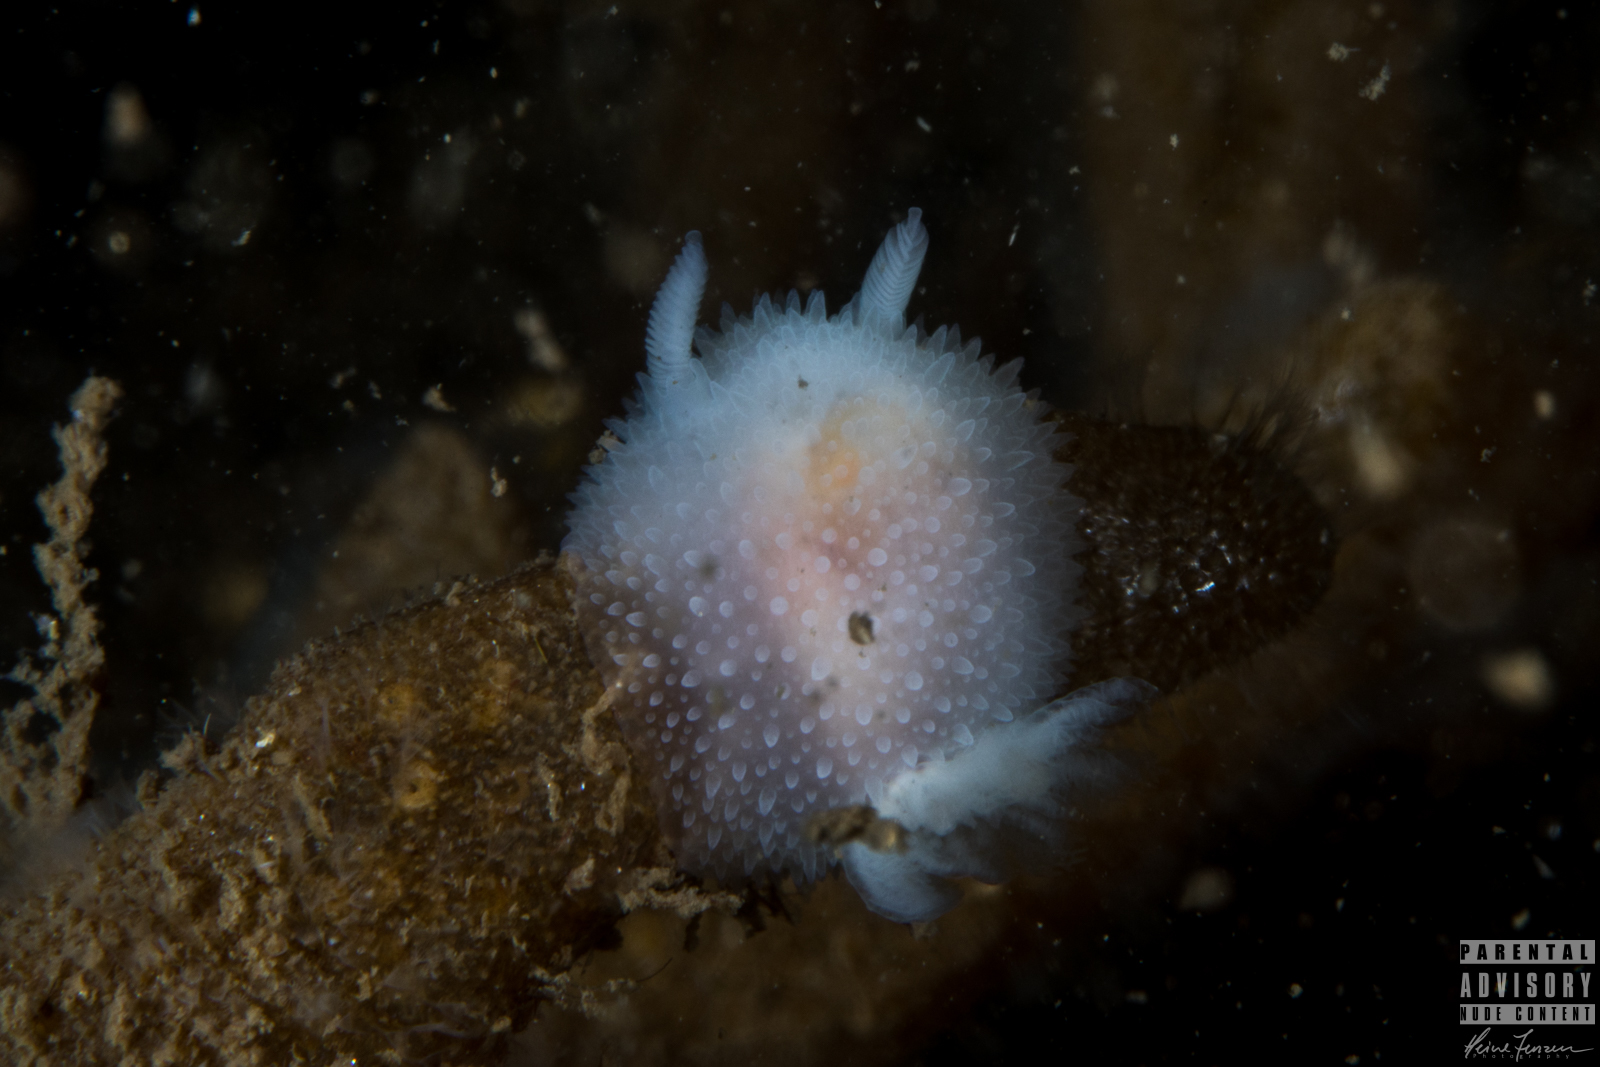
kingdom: Animalia
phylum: Mollusca
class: Gastropoda
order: Nudibranchia
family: Onchidorididae
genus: Acanthodoris
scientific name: Acanthodoris pilosa
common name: Hairy spiny doris
